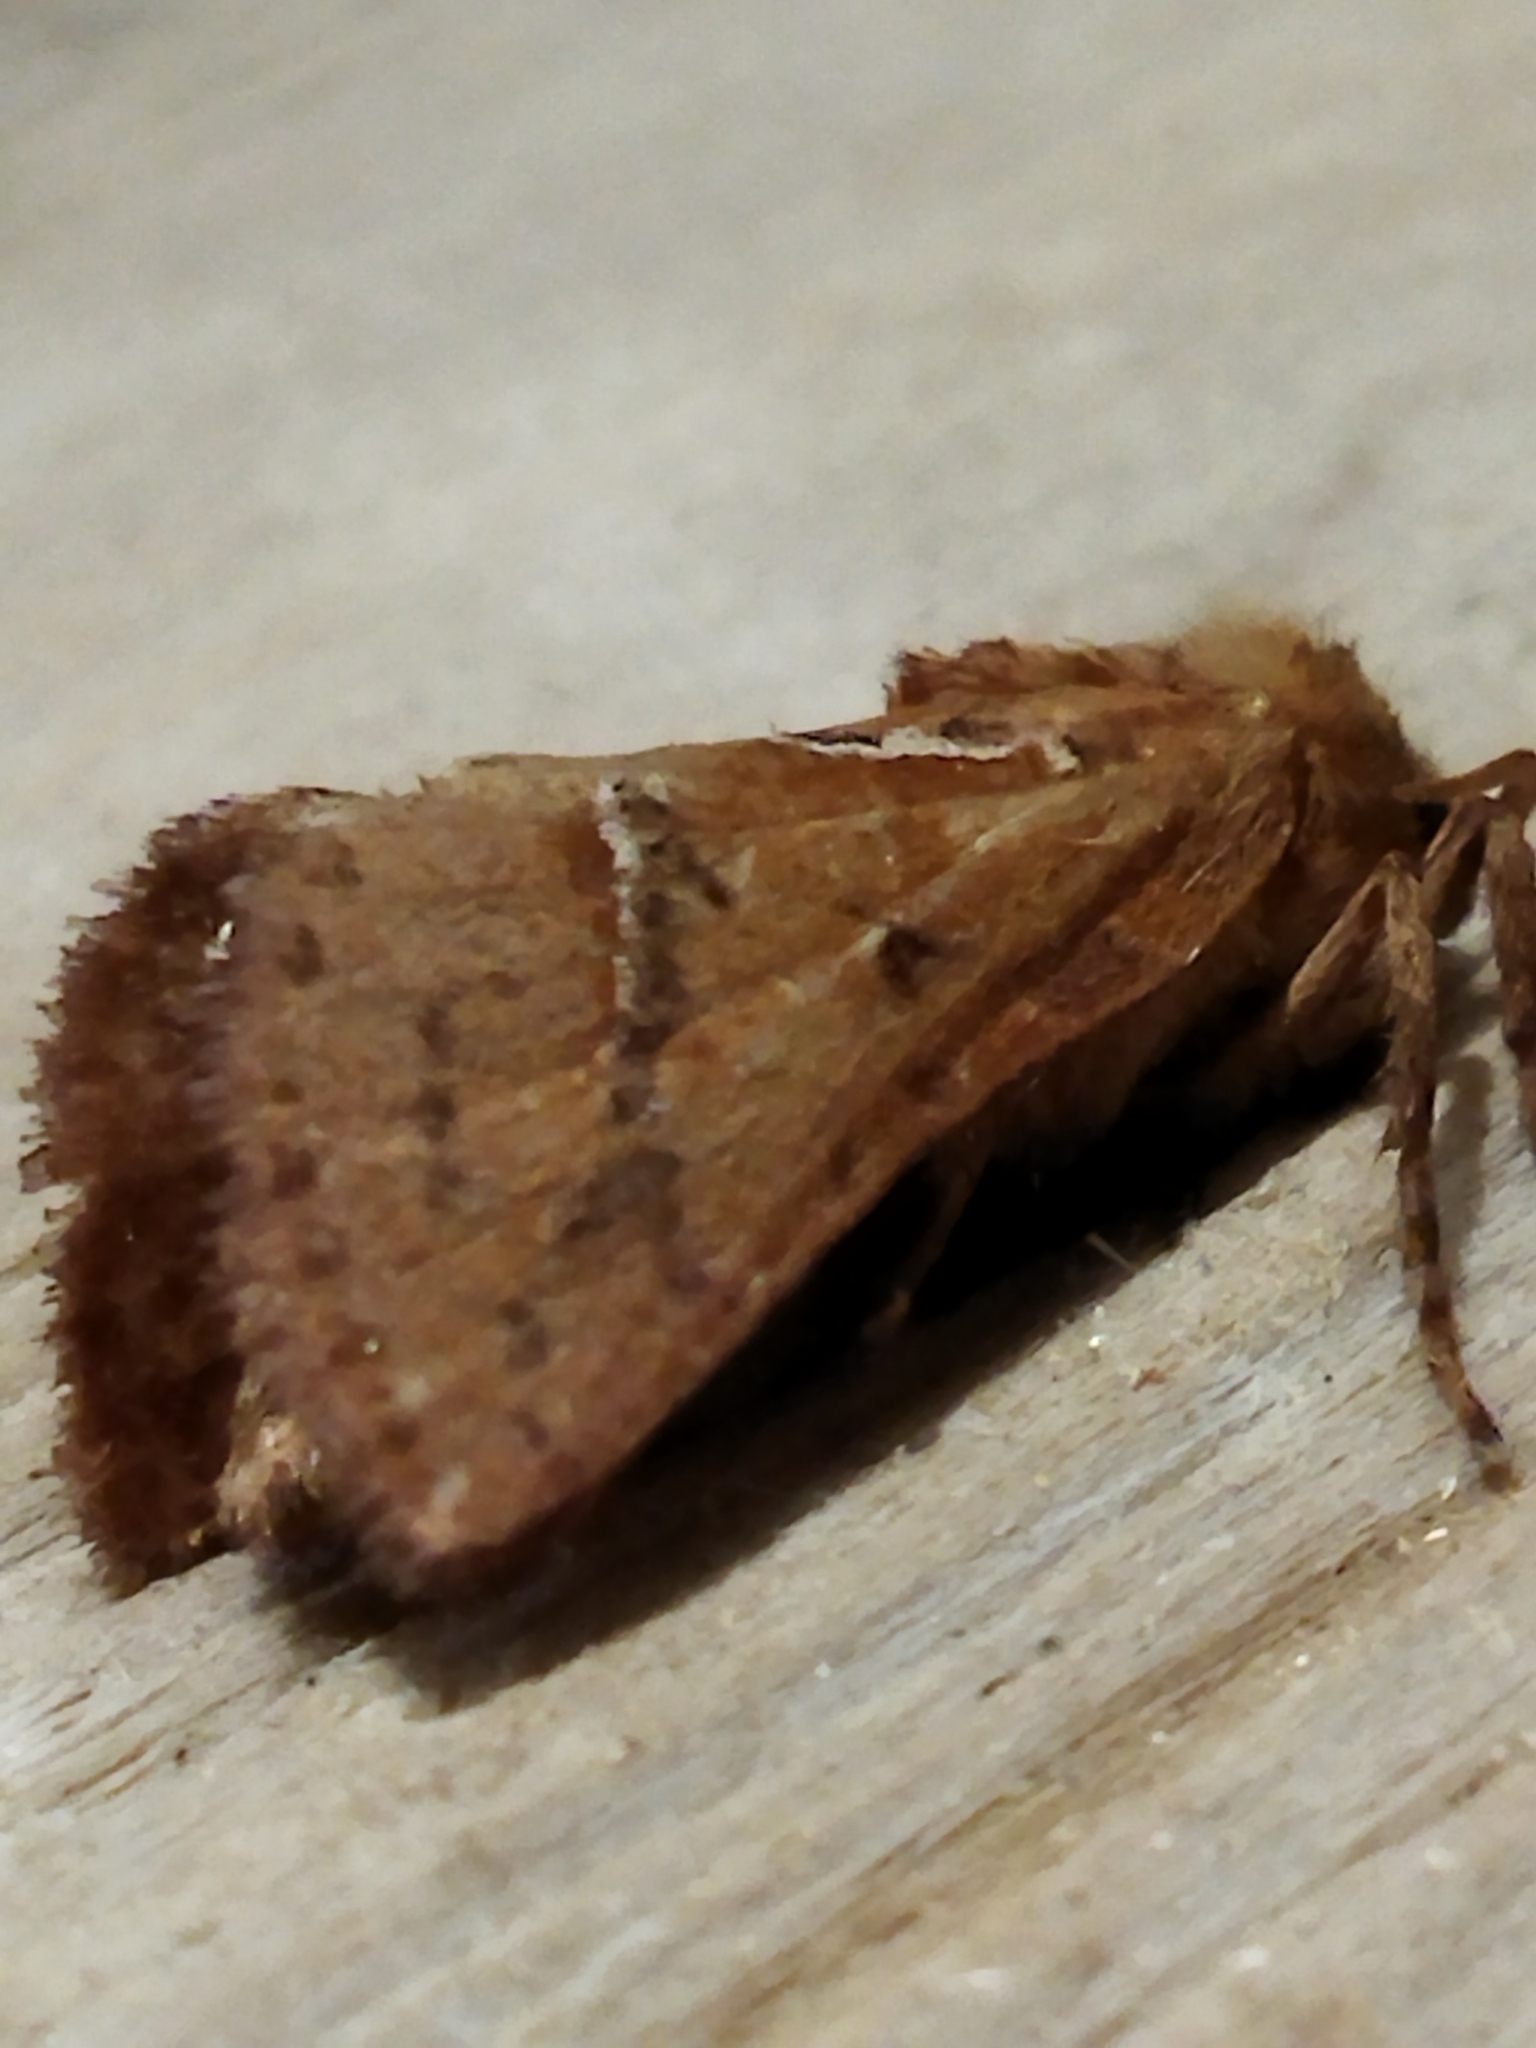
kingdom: Animalia
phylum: Arthropoda
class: Insecta
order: Lepidoptera
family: Hepialidae
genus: Triodia
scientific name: Triodia sylvina
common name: Orange swift
